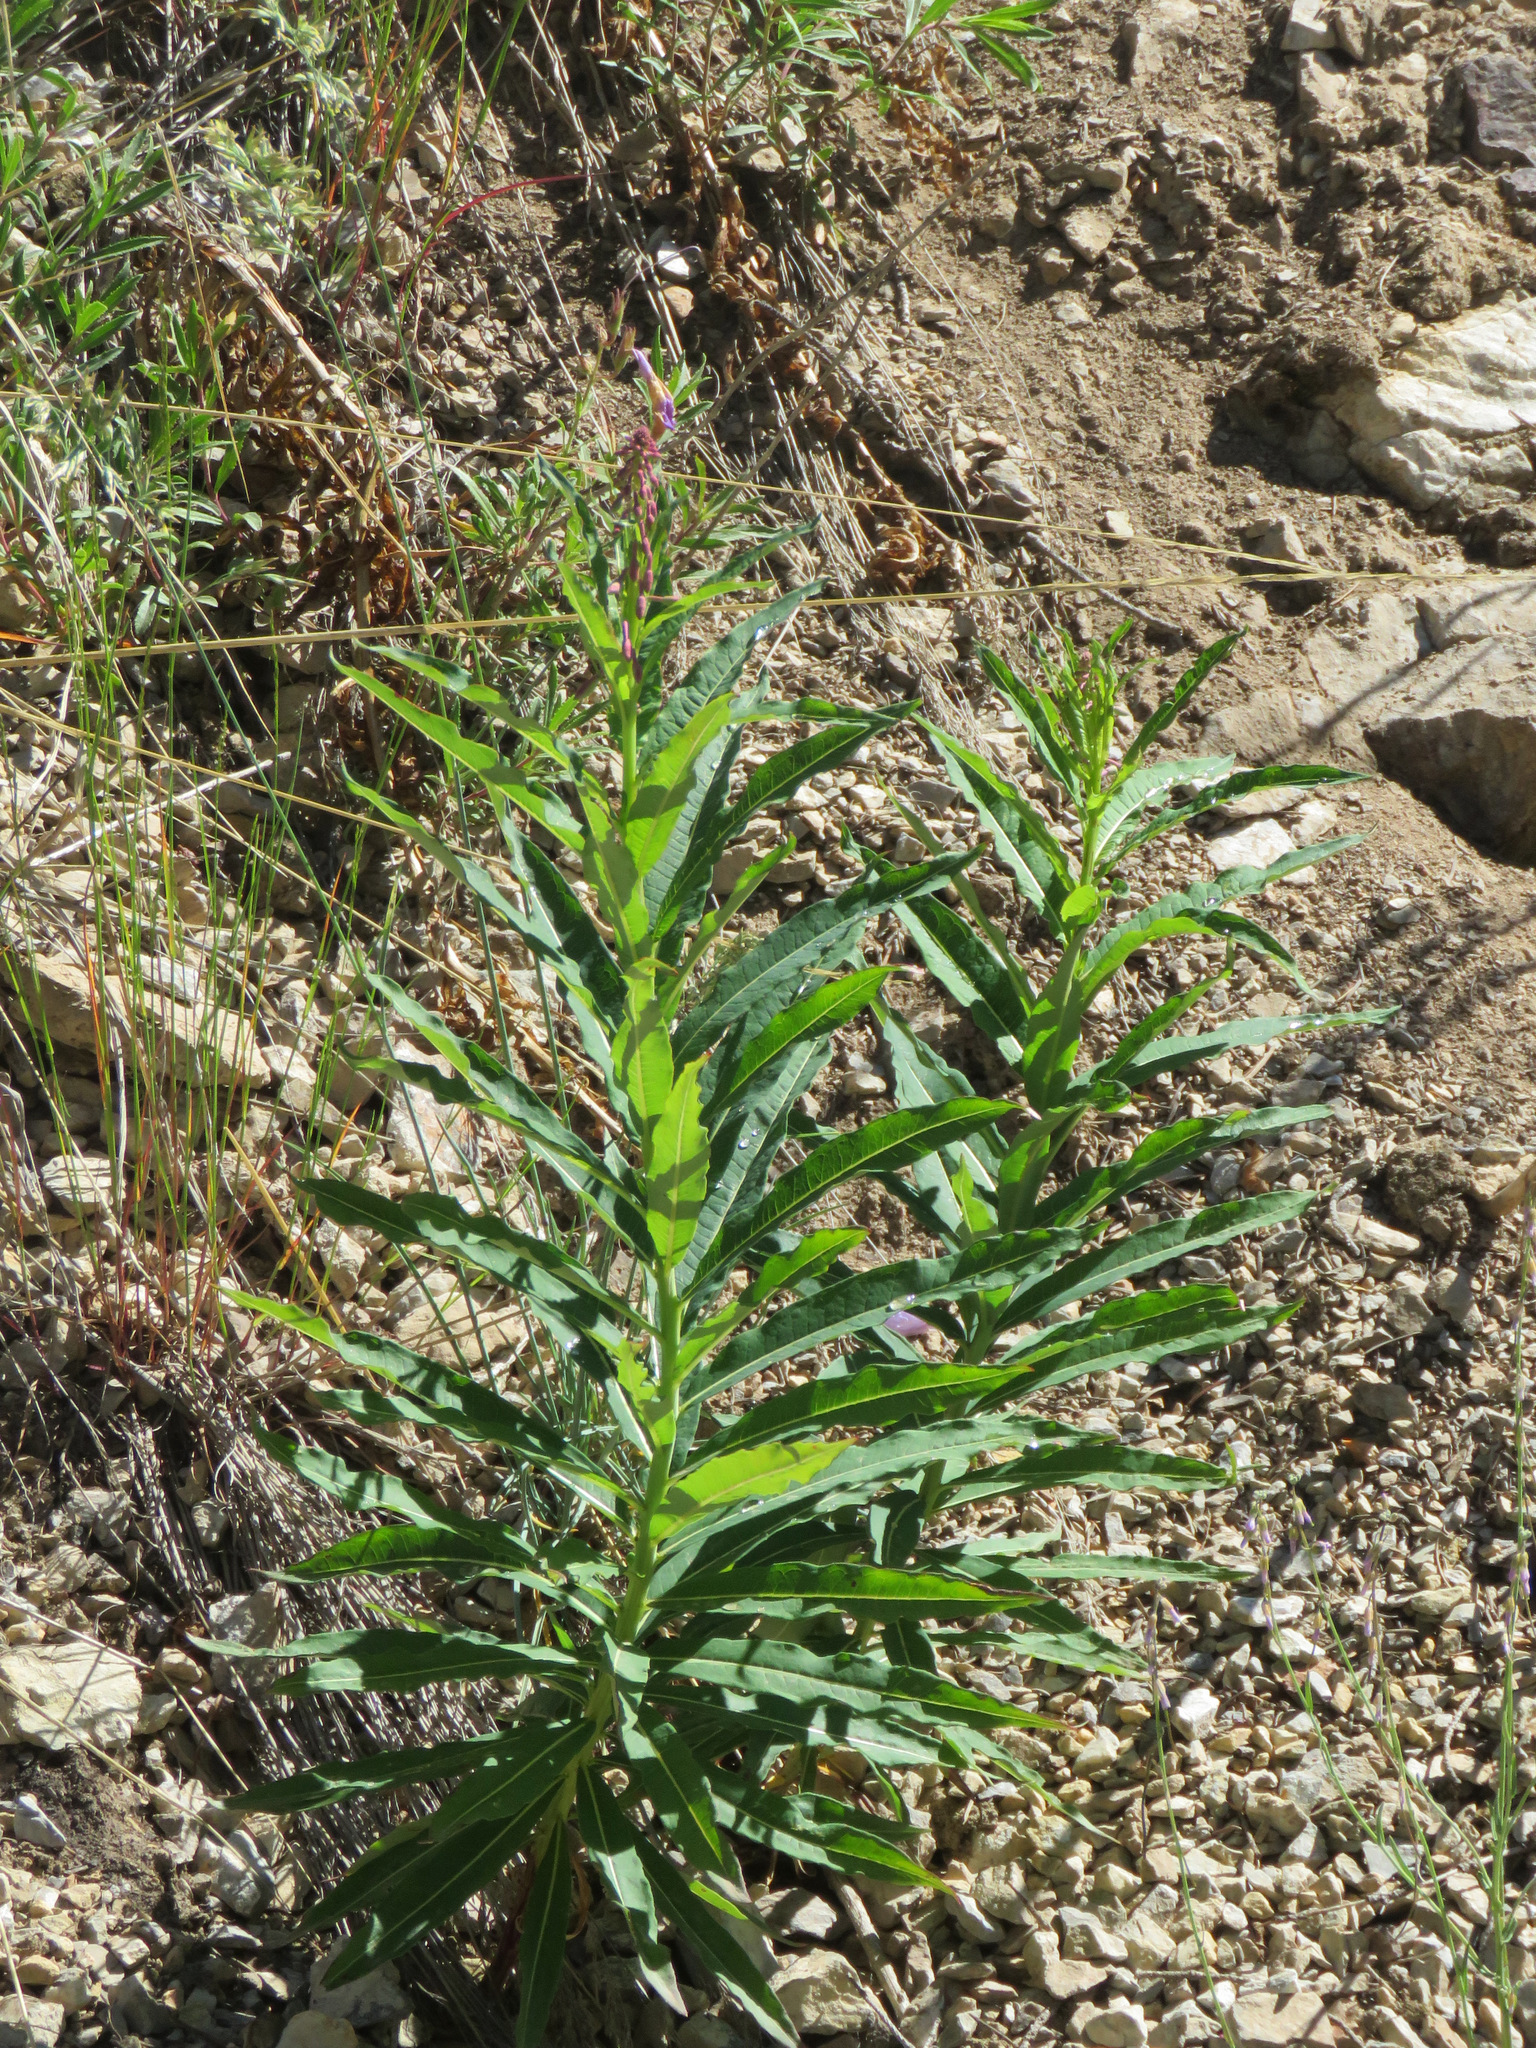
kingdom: Plantae
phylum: Tracheophyta
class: Magnoliopsida
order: Myrtales
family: Onagraceae
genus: Chamaenerion
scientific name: Chamaenerion angustifolium
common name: Fireweed
